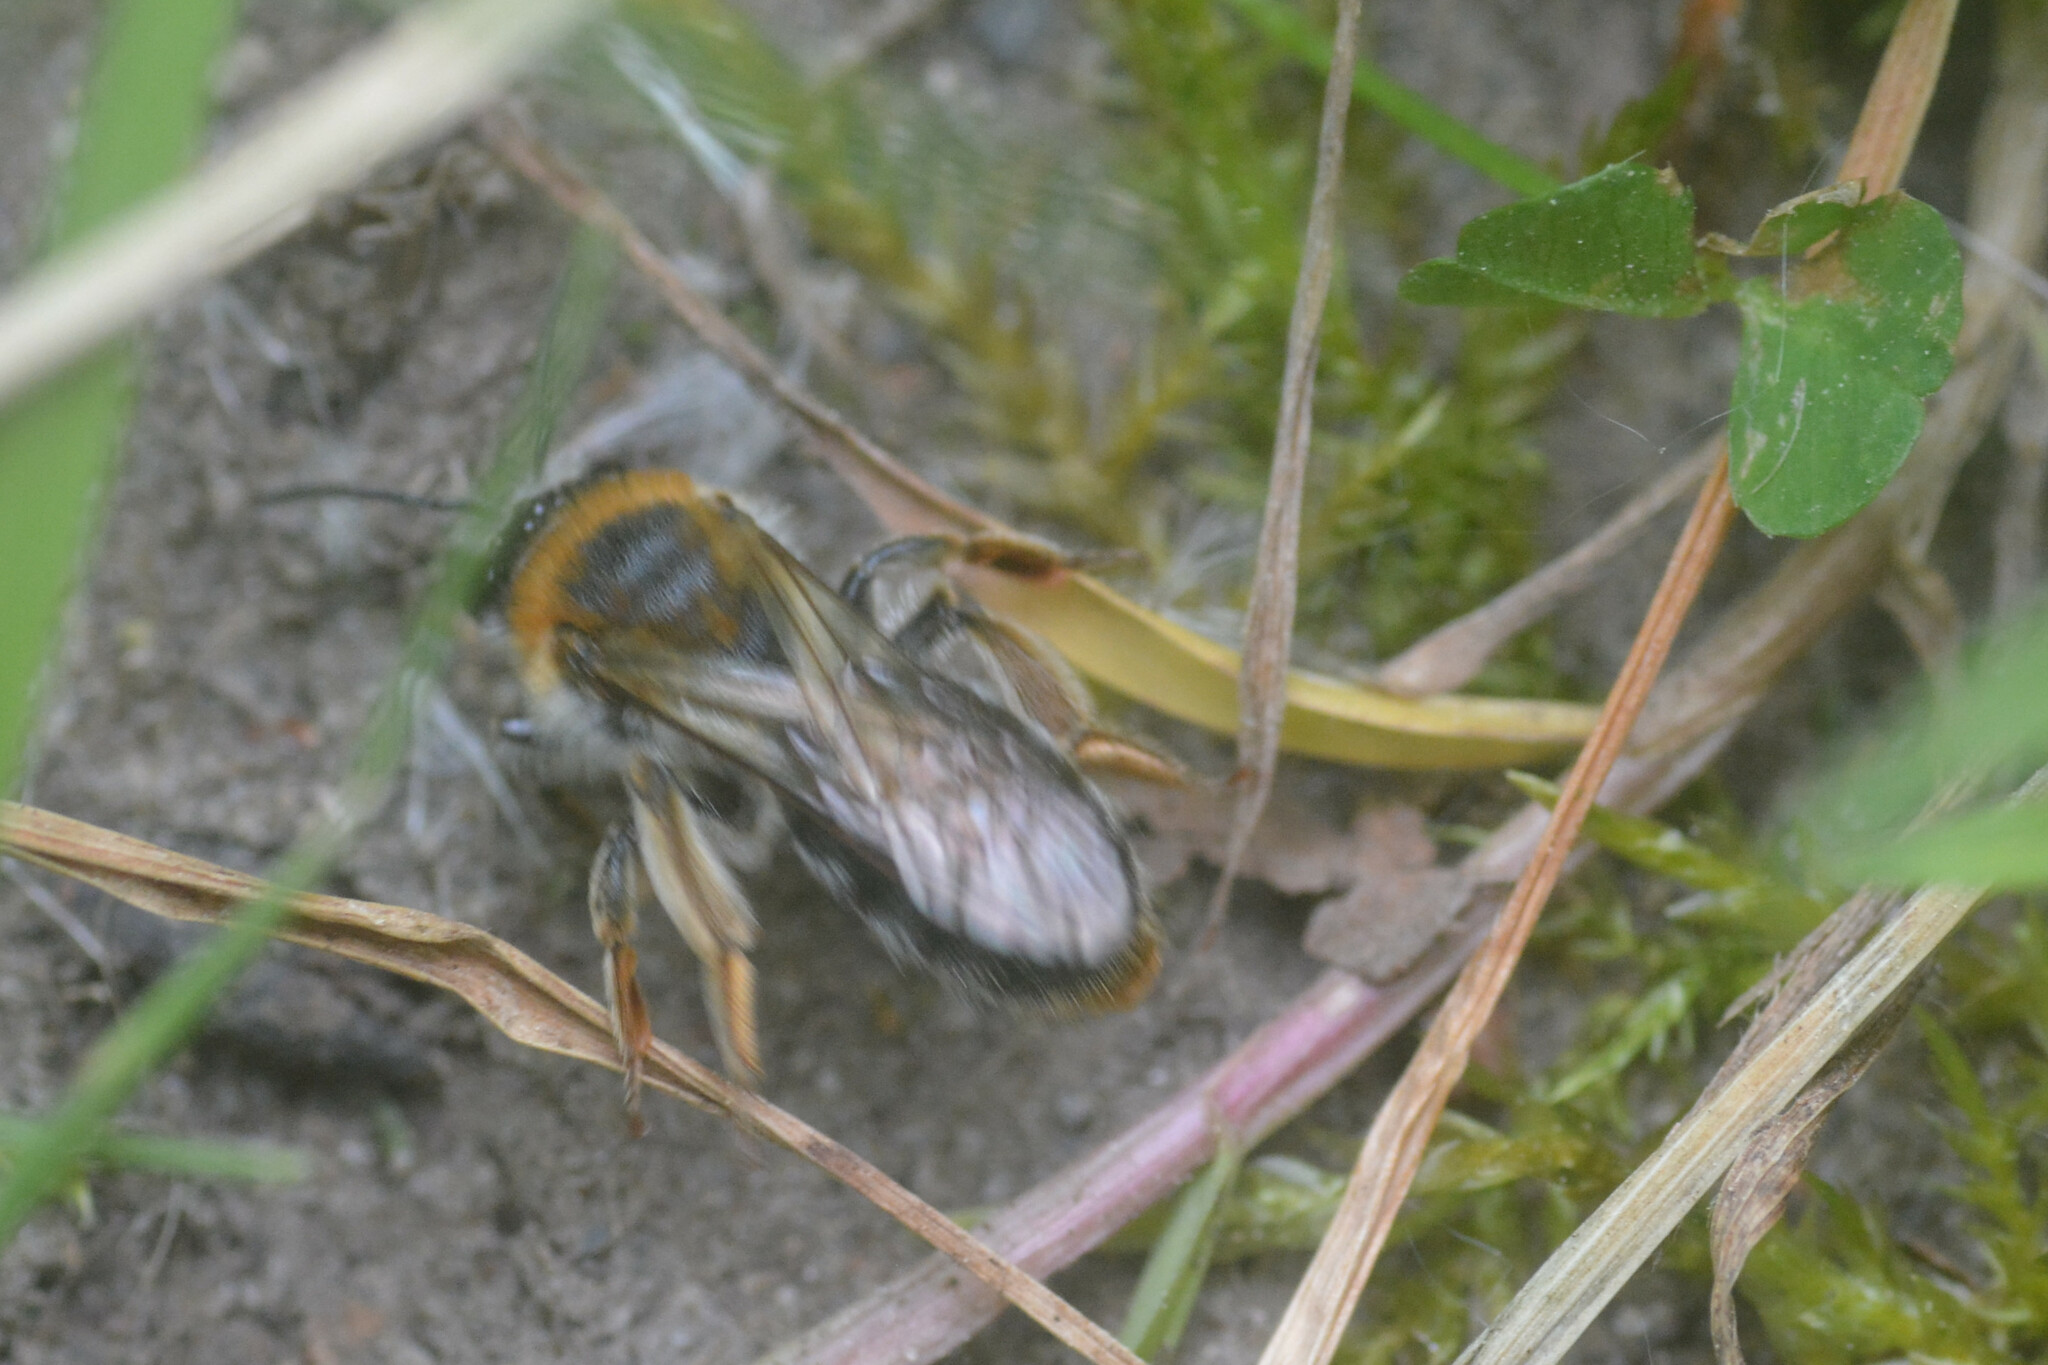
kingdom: Animalia
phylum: Arthropoda
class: Insecta
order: Hymenoptera
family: Andrenidae
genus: Andrena
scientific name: Andrena haemorrhoa
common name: Early mining bee
